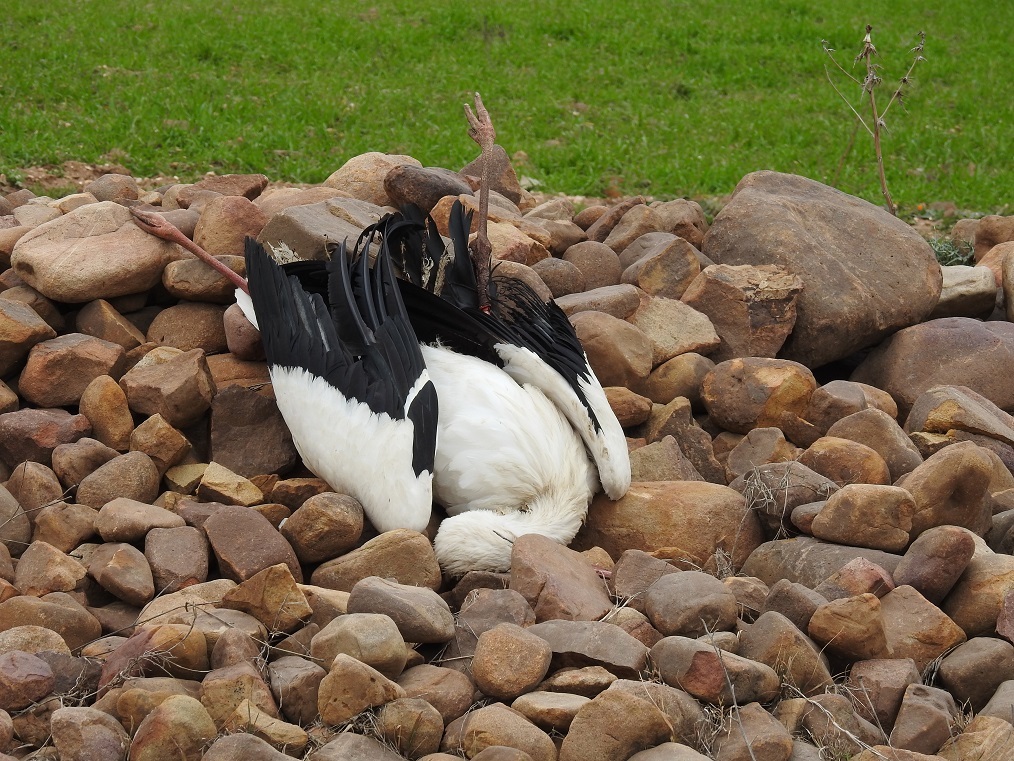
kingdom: Animalia
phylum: Chordata
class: Aves
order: Ciconiiformes
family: Ciconiidae
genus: Ciconia
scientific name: Ciconia ciconia
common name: White stork
